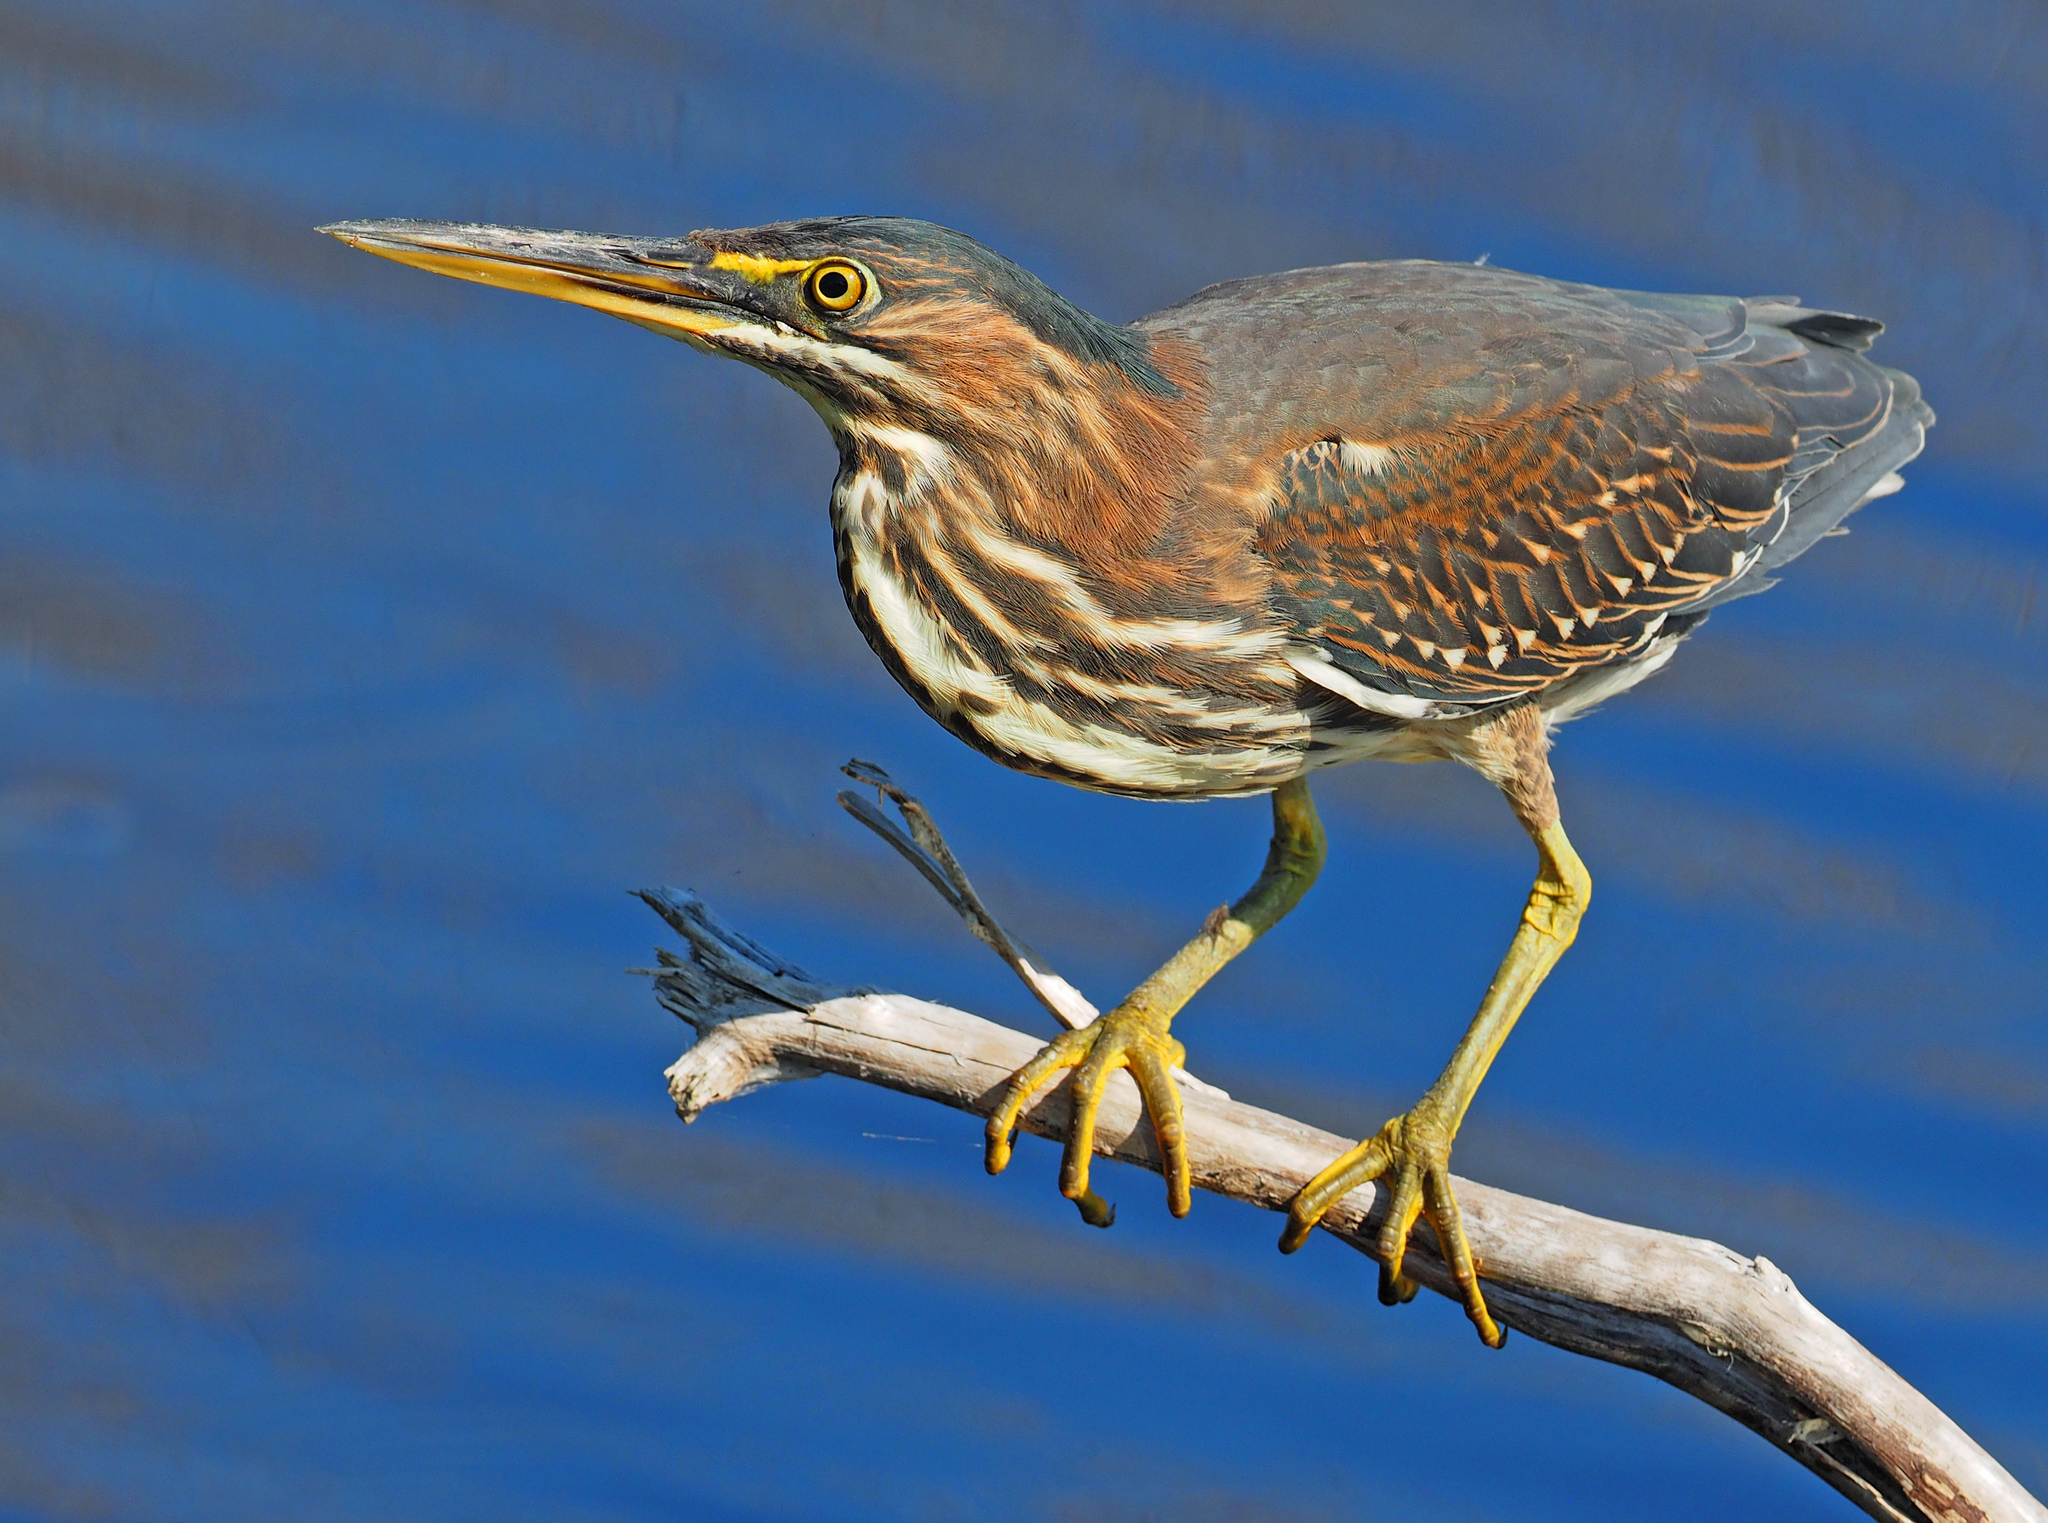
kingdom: Animalia
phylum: Chordata
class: Aves
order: Pelecaniformes
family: Ardeidae
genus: Butorides
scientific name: Butorides virescens
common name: Green heron
